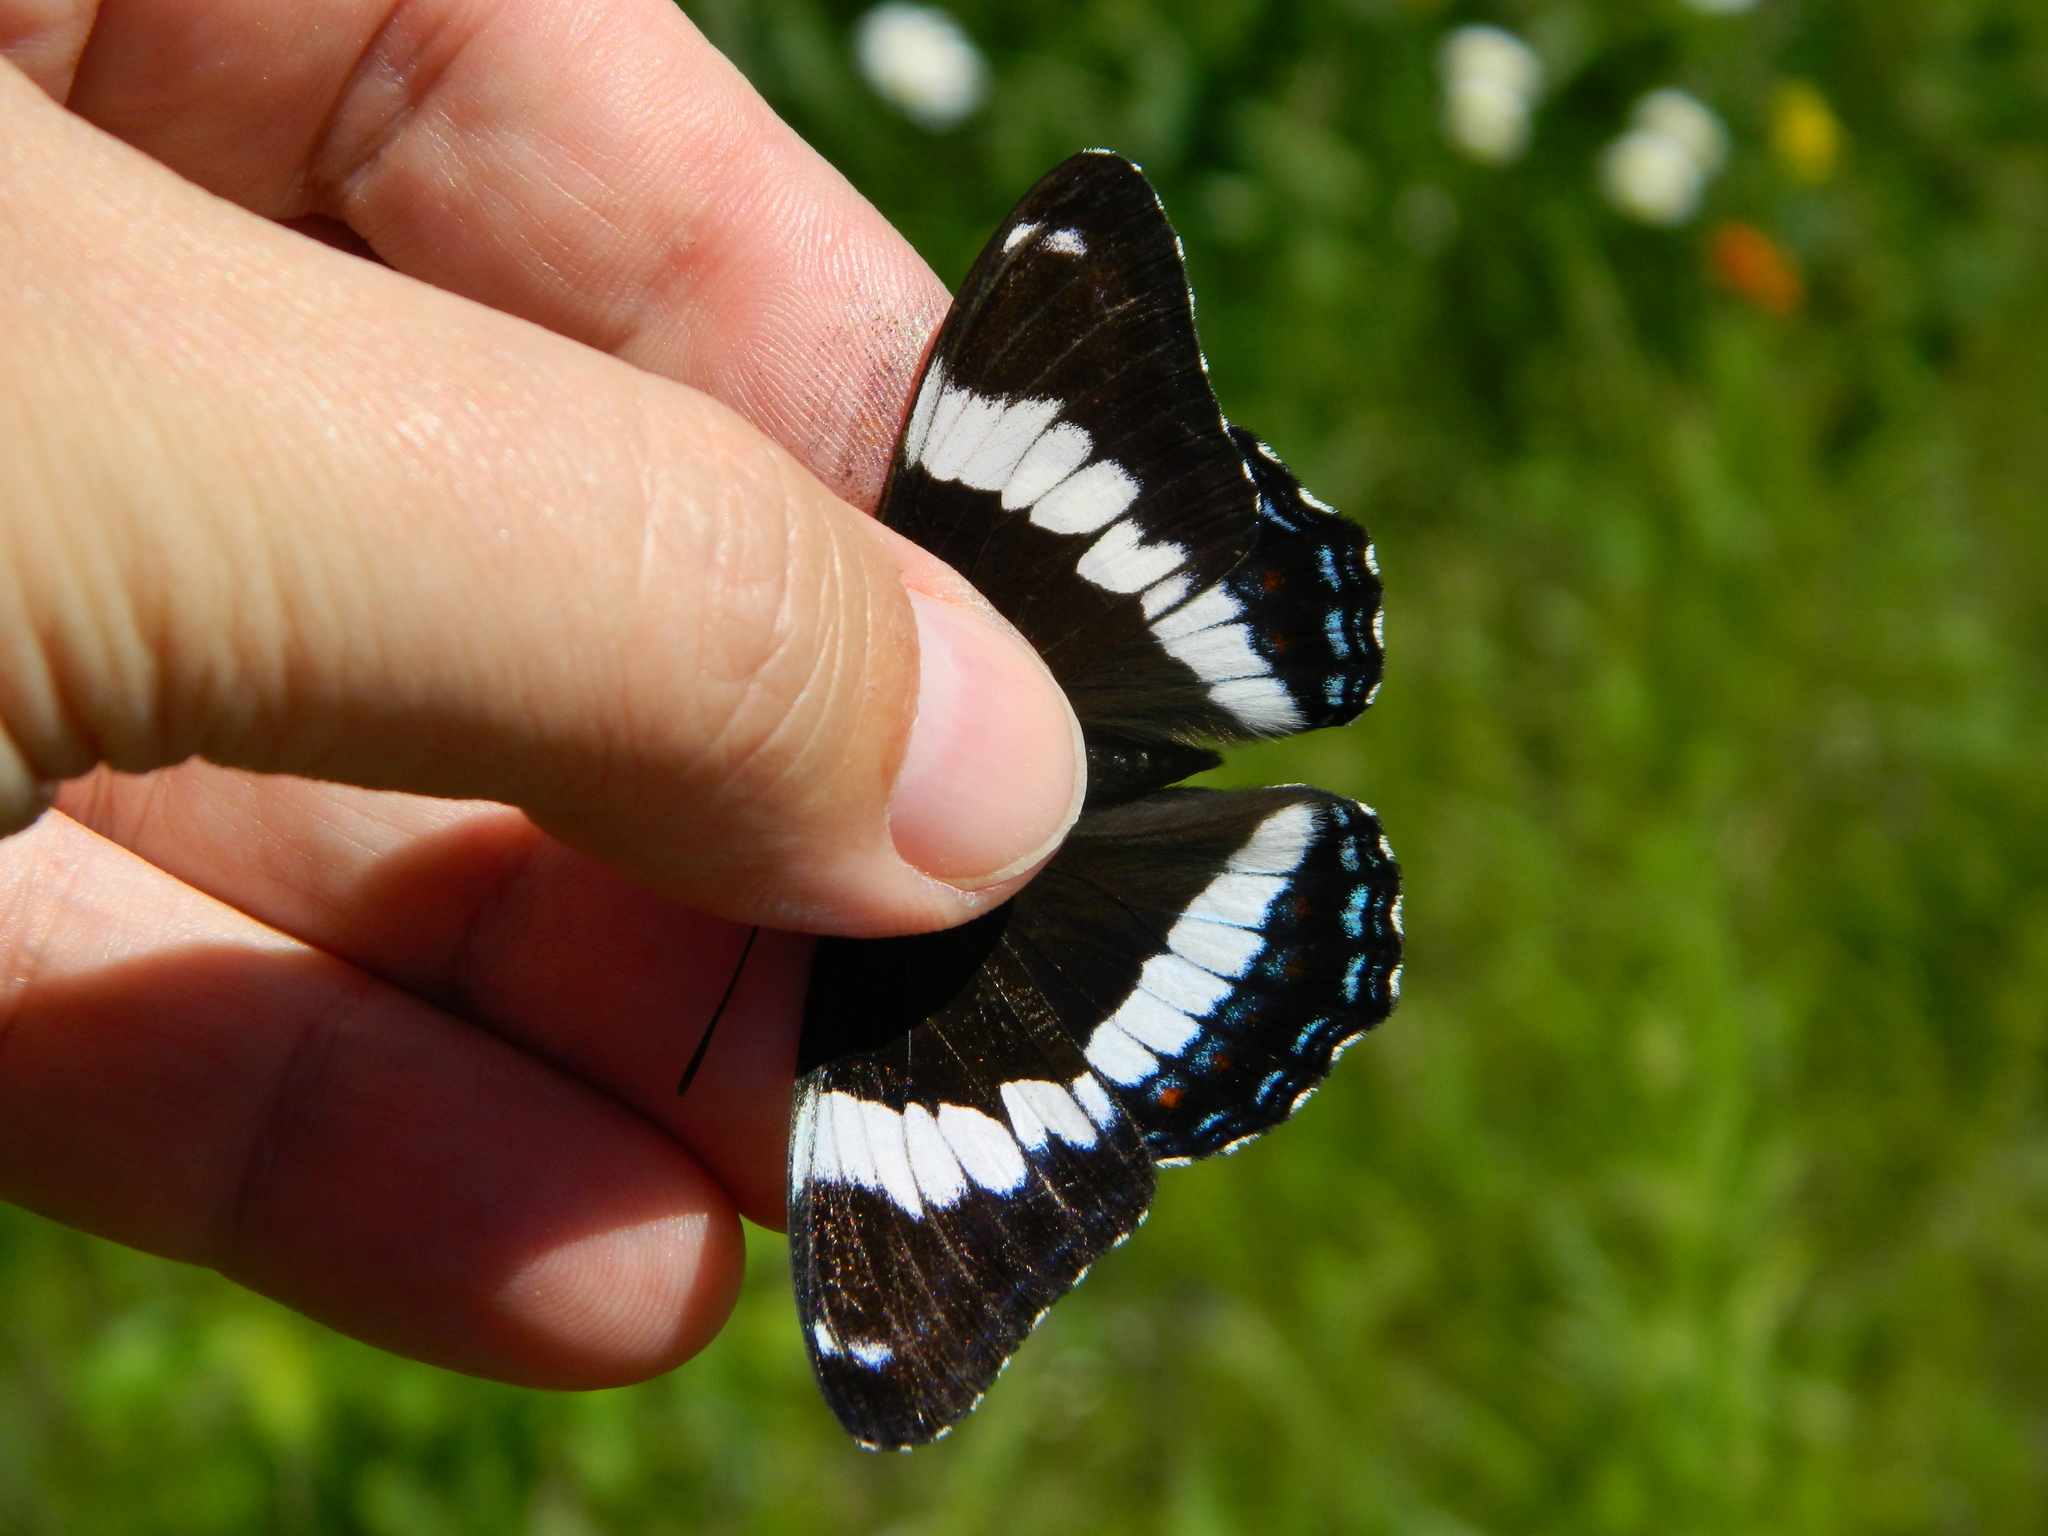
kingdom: Animalia
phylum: Arthropoda
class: Insecta
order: Lepidoptera
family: Nymphalidae
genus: Limenitis
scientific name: Limenitis arthemis
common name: Red-spotted admiral
